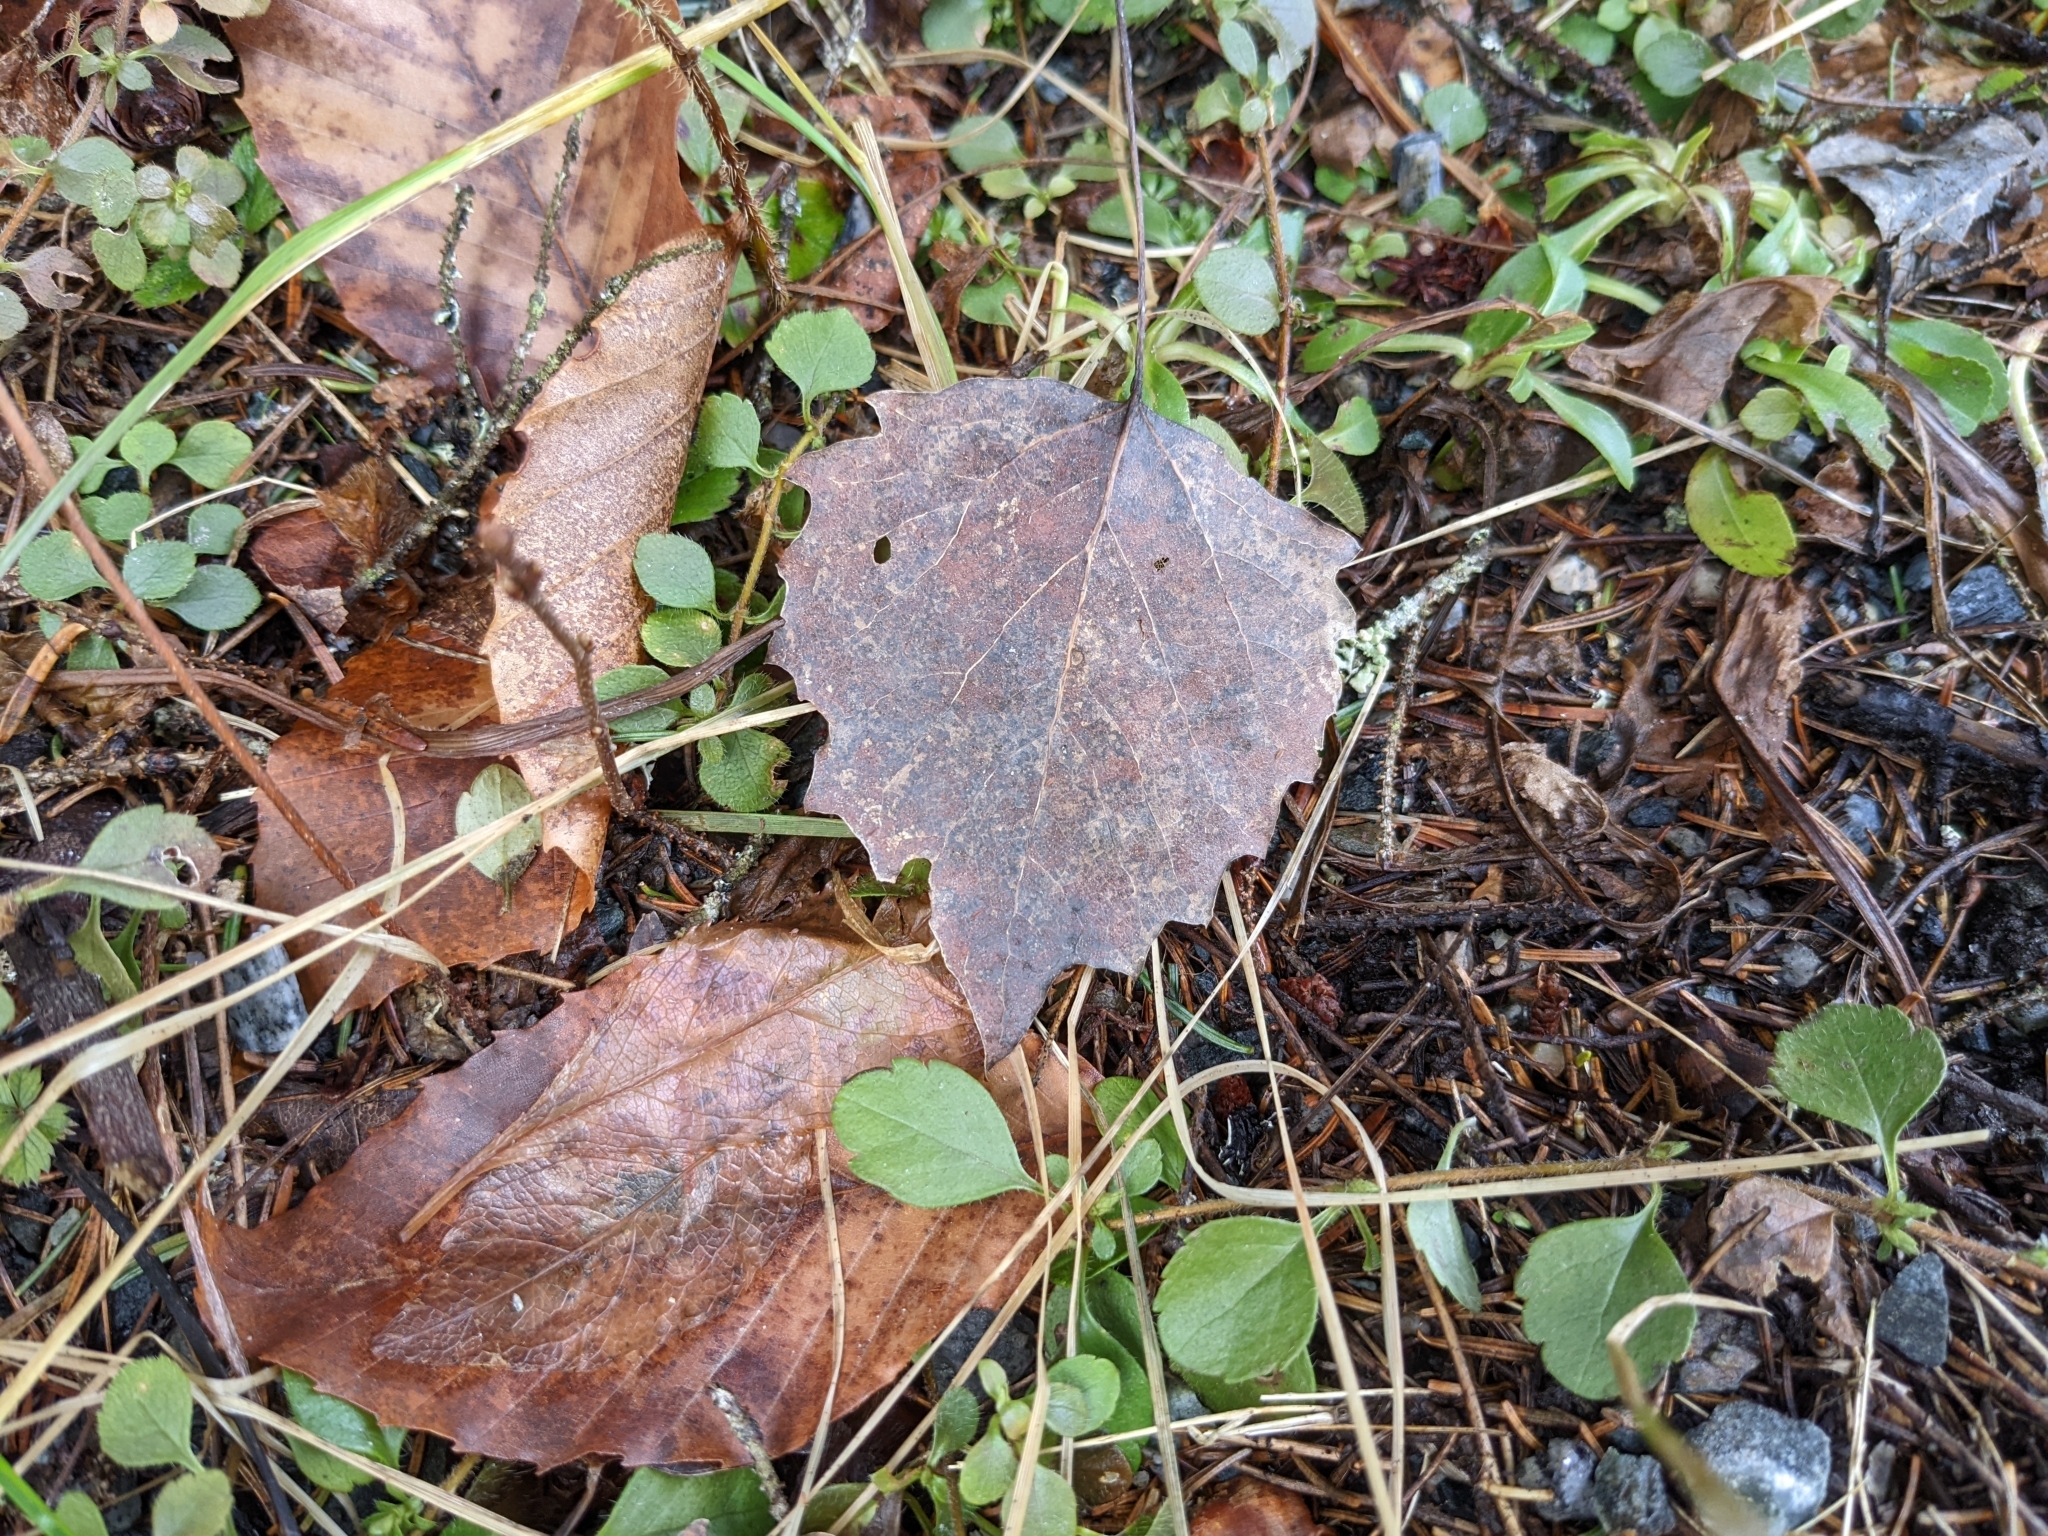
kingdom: Plantae
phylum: Tracheophyta
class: Magnoliopsida
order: Malpighiales
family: Salicaceae
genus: Populus
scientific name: Populus grandidentata
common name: Bigtooth aspen
